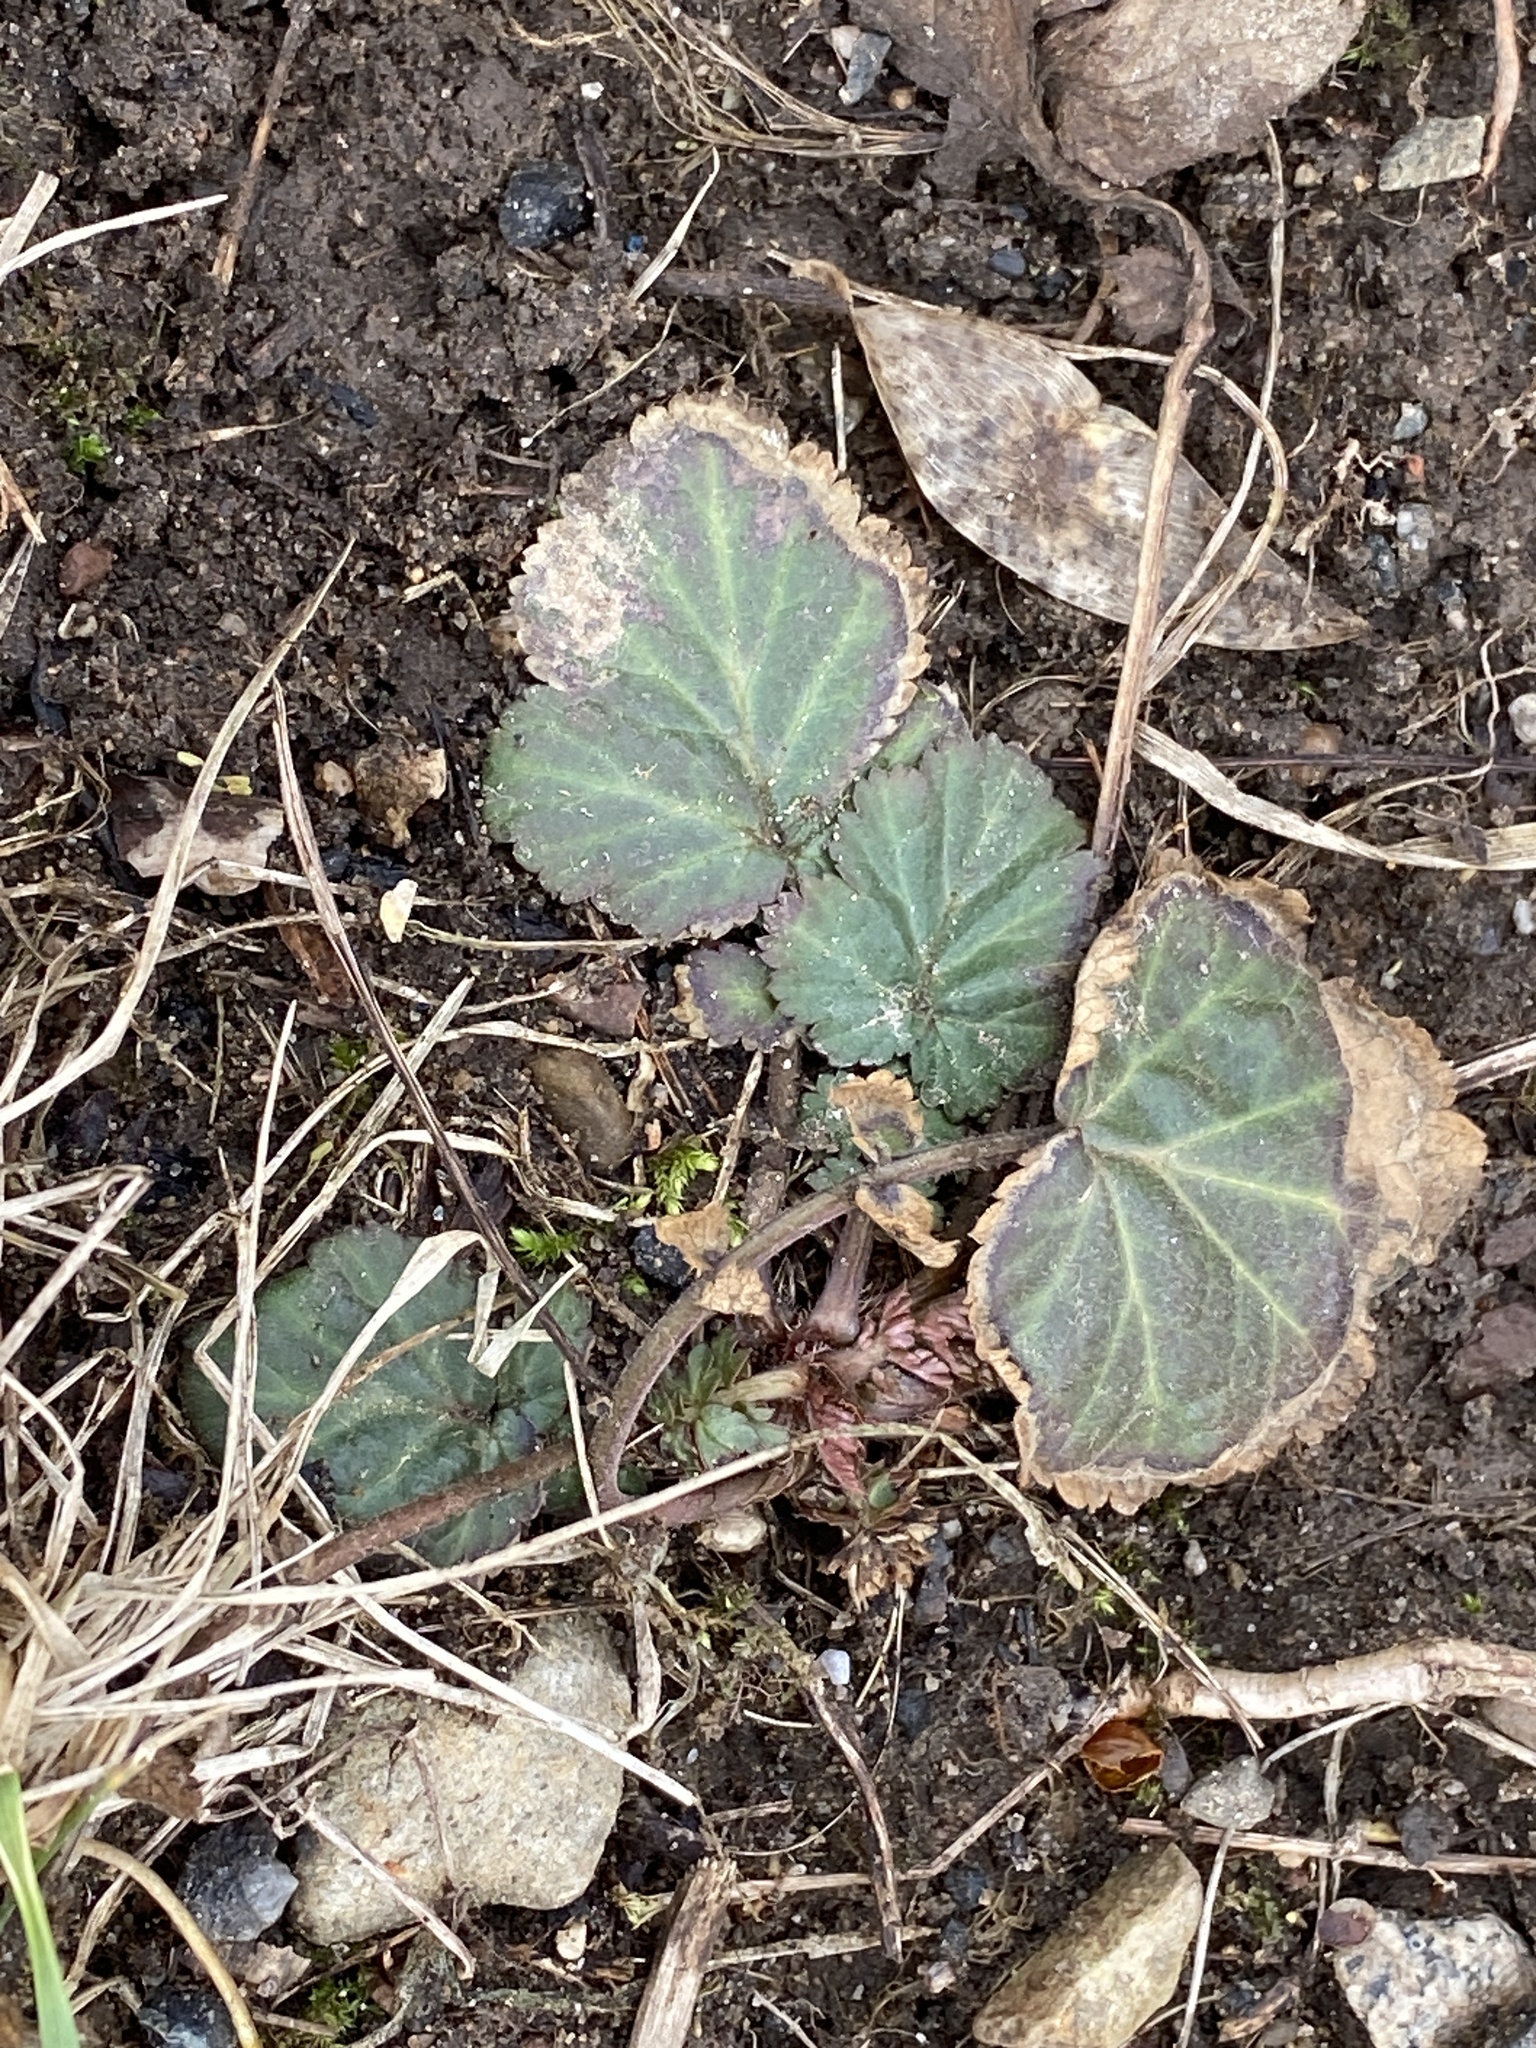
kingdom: Plantae
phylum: Tracheophyta
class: Magnoliopsida
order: Rosales
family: Rosaceae
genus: Geum
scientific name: Geum canadense
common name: White avens
